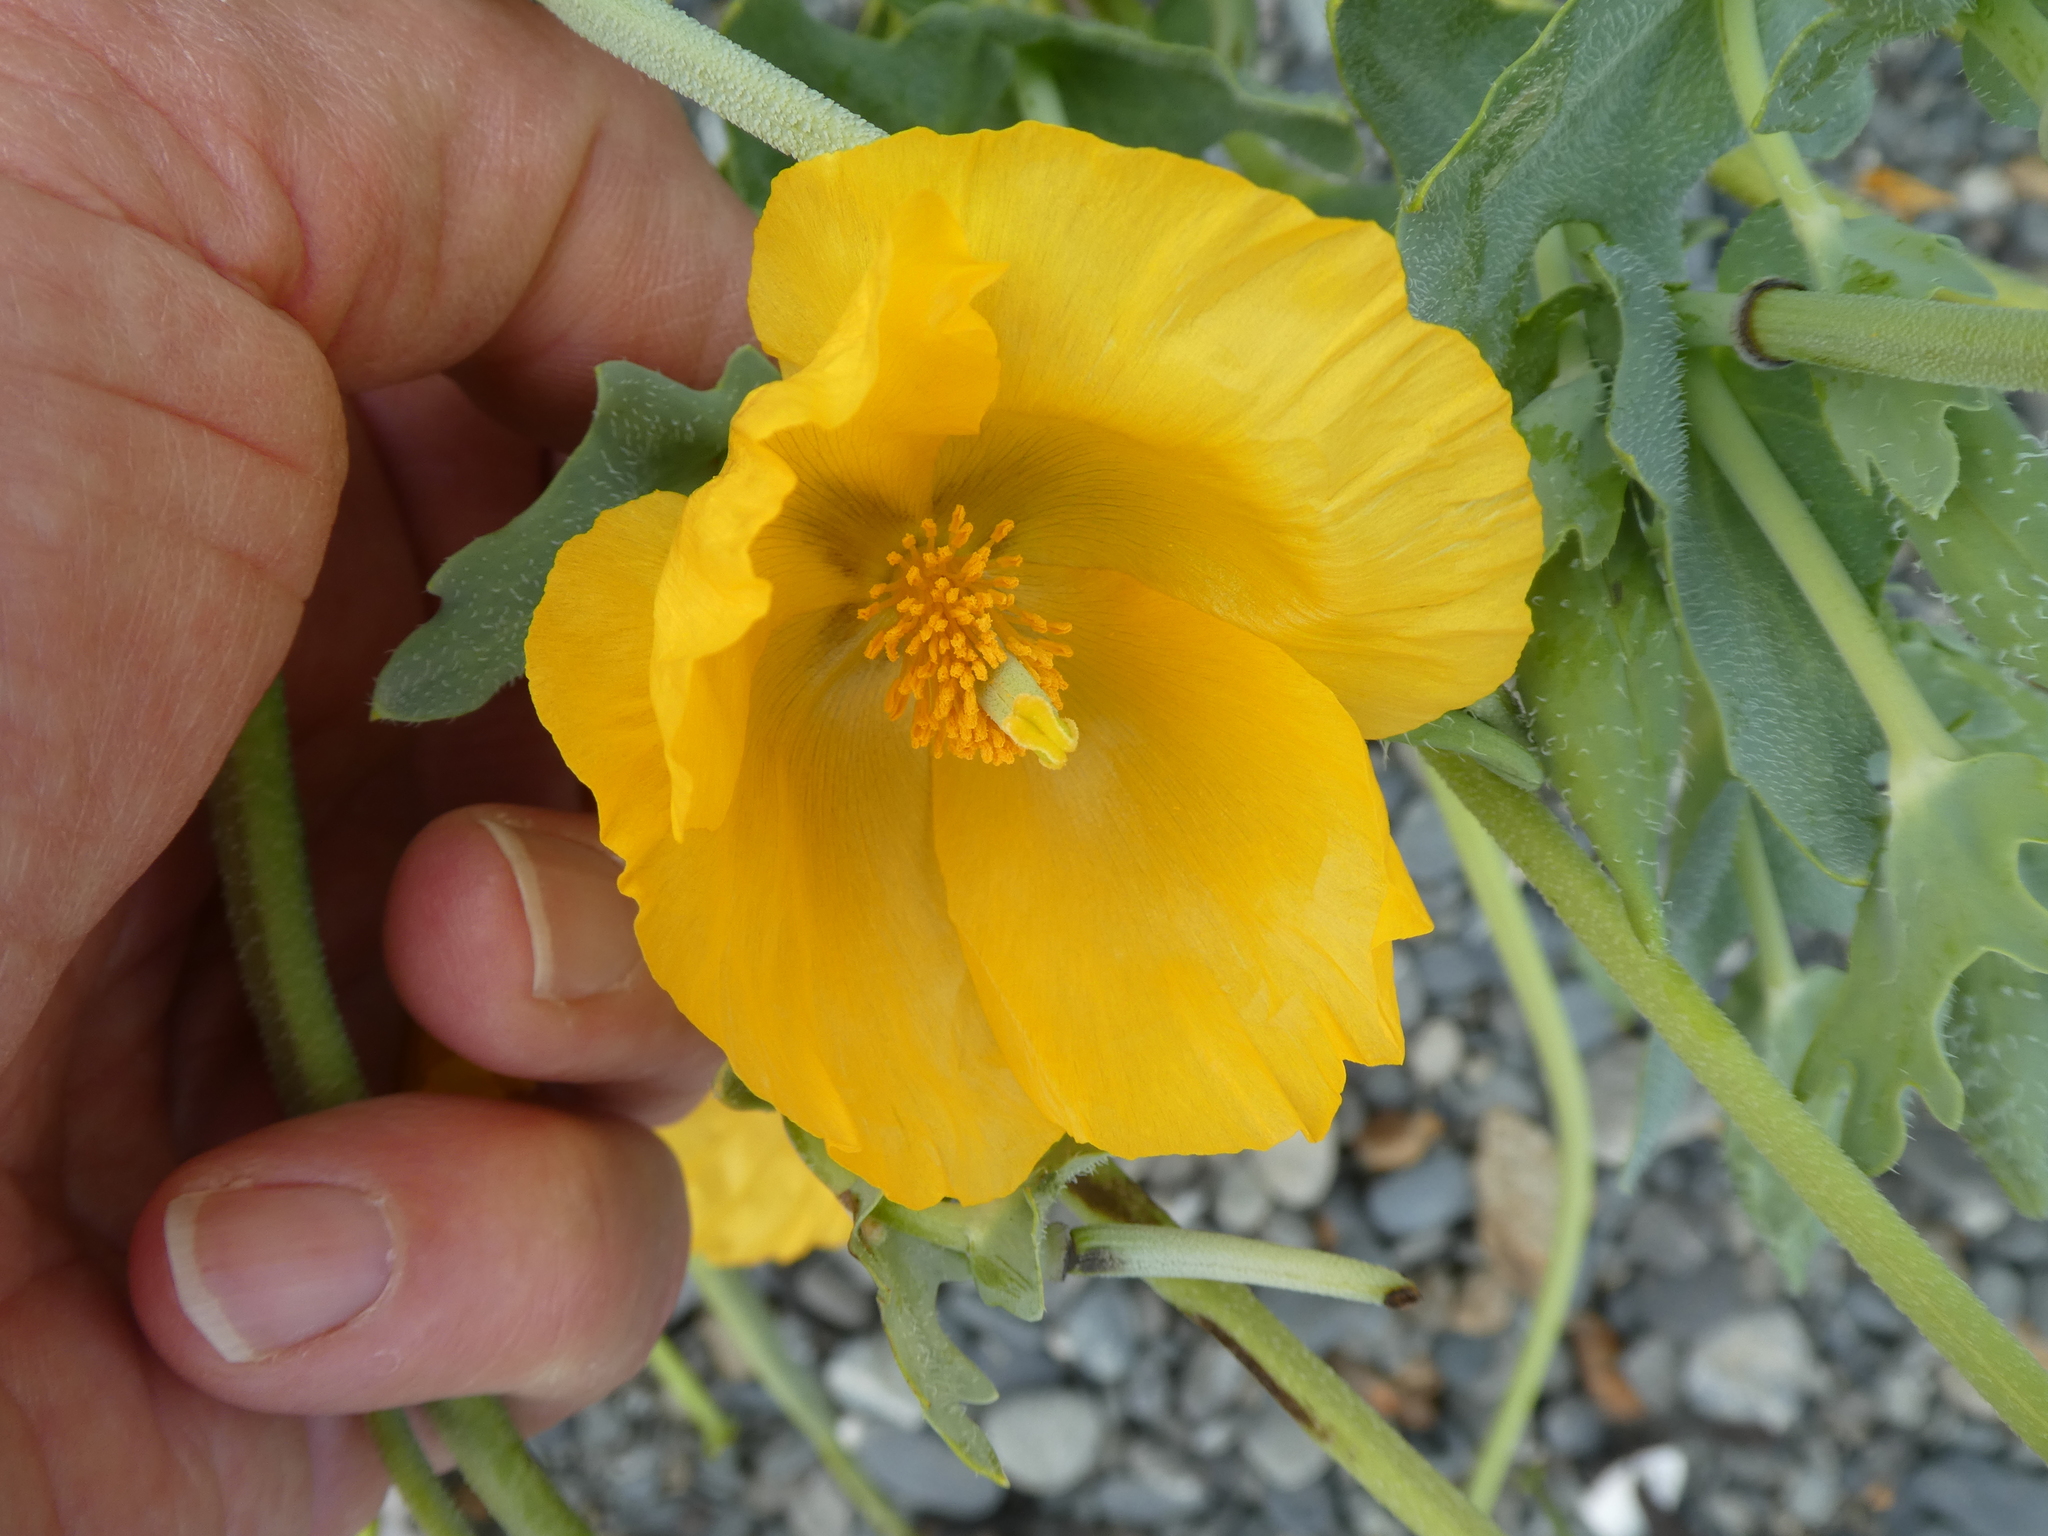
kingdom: Plantae
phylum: Tracheophyta
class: Magnoliopsida
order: Ranunculales
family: Papaveraceae
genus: Glaucium
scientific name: Glaucium flavum
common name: Yellow horned-poppy
